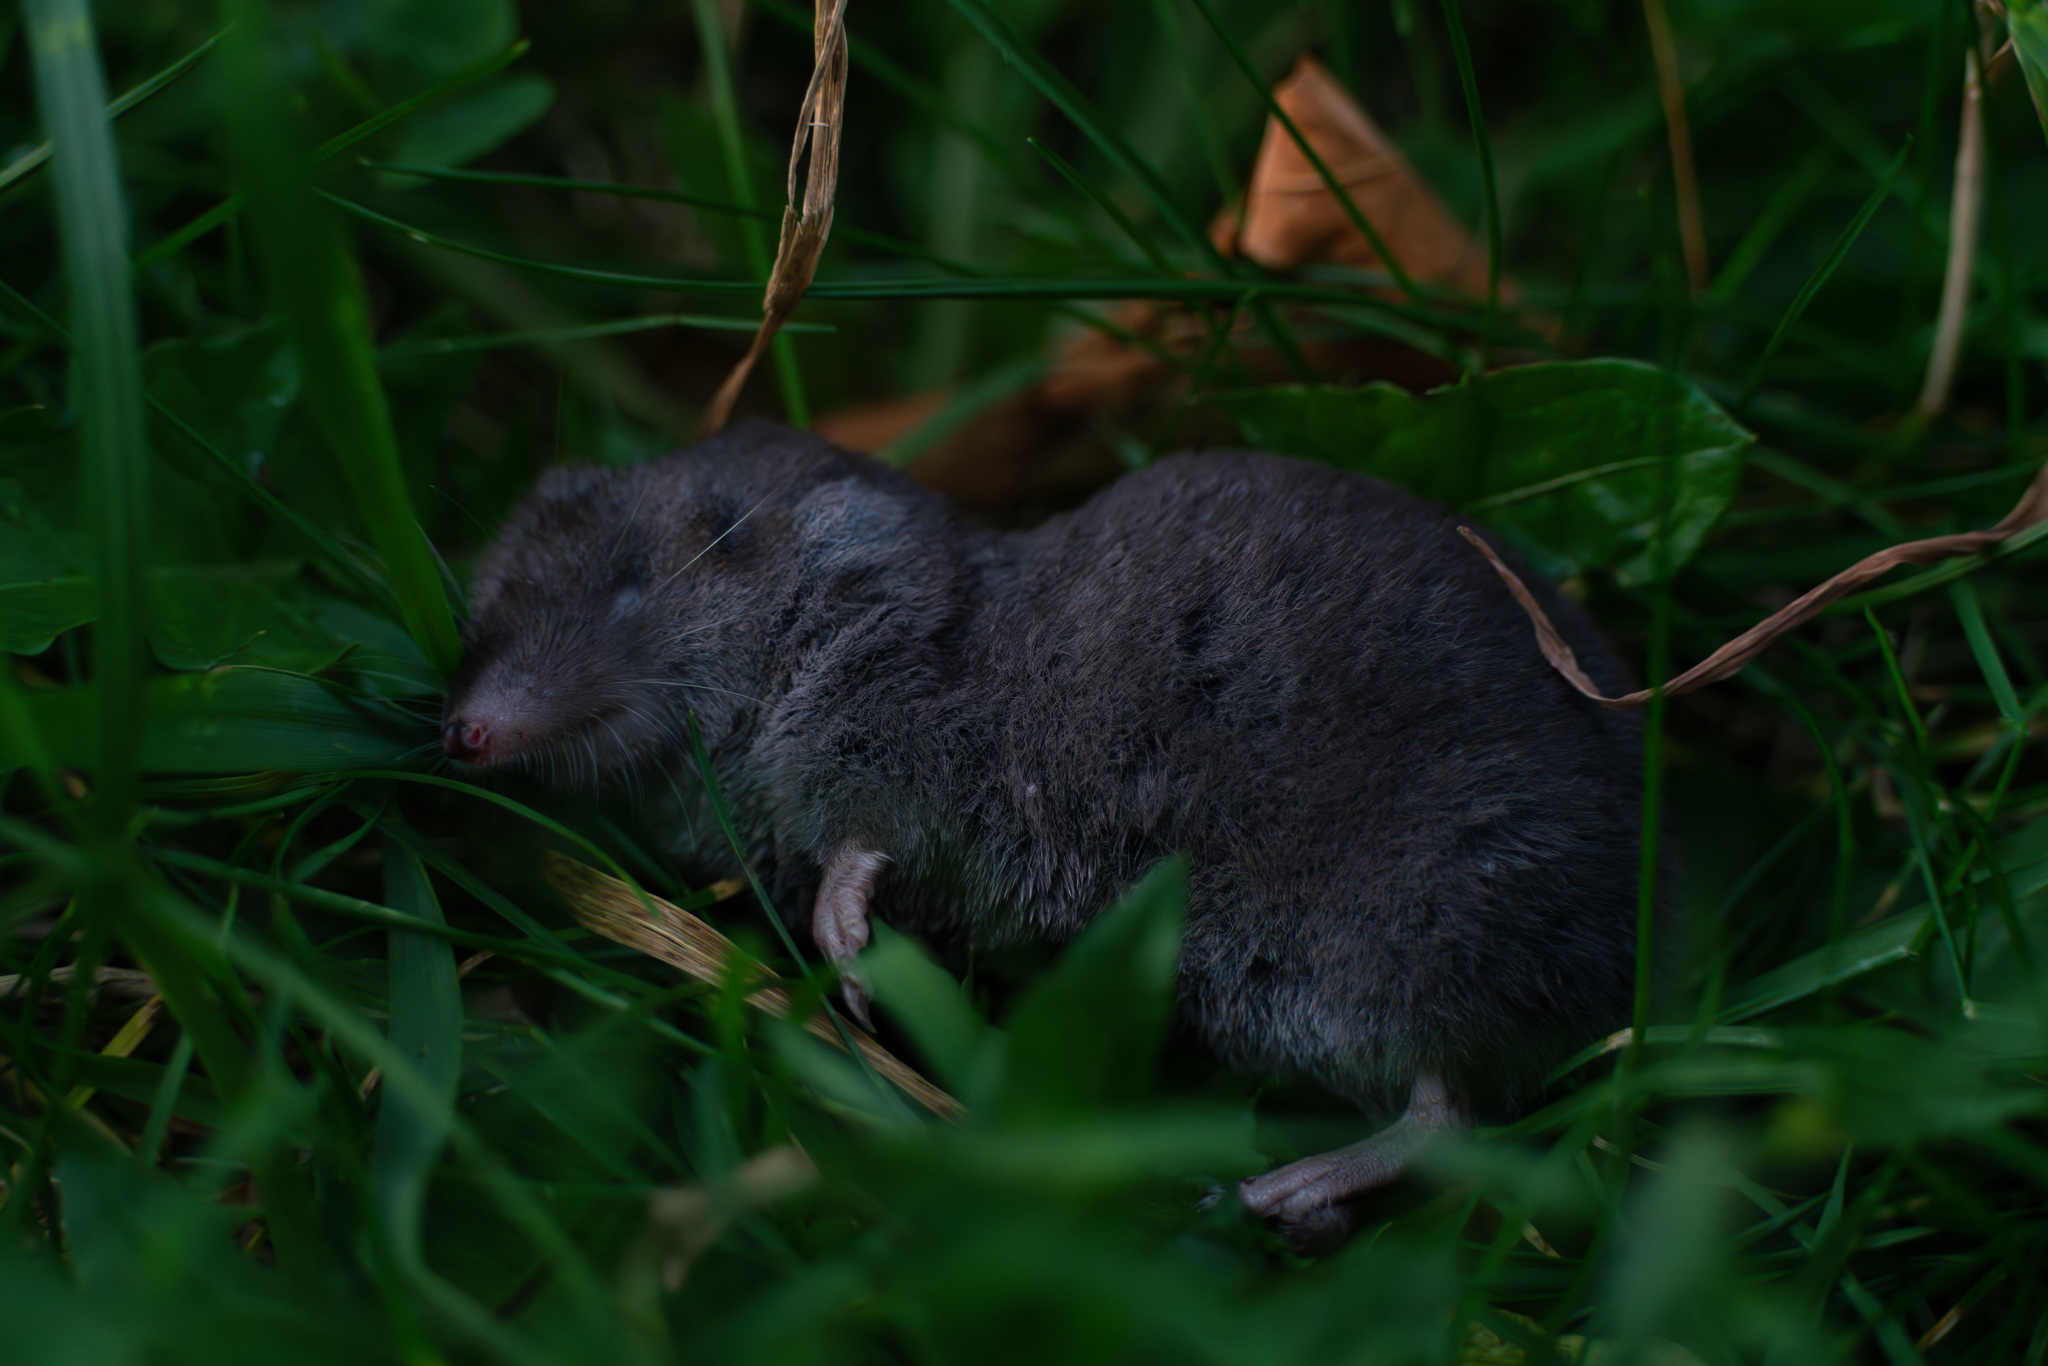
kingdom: Animalia
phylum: Chordata
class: Mammalia
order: Soricomorpha
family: Soricidae
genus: Blarina
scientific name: Blarina brevicauda
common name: Northern short-tailed shrew
